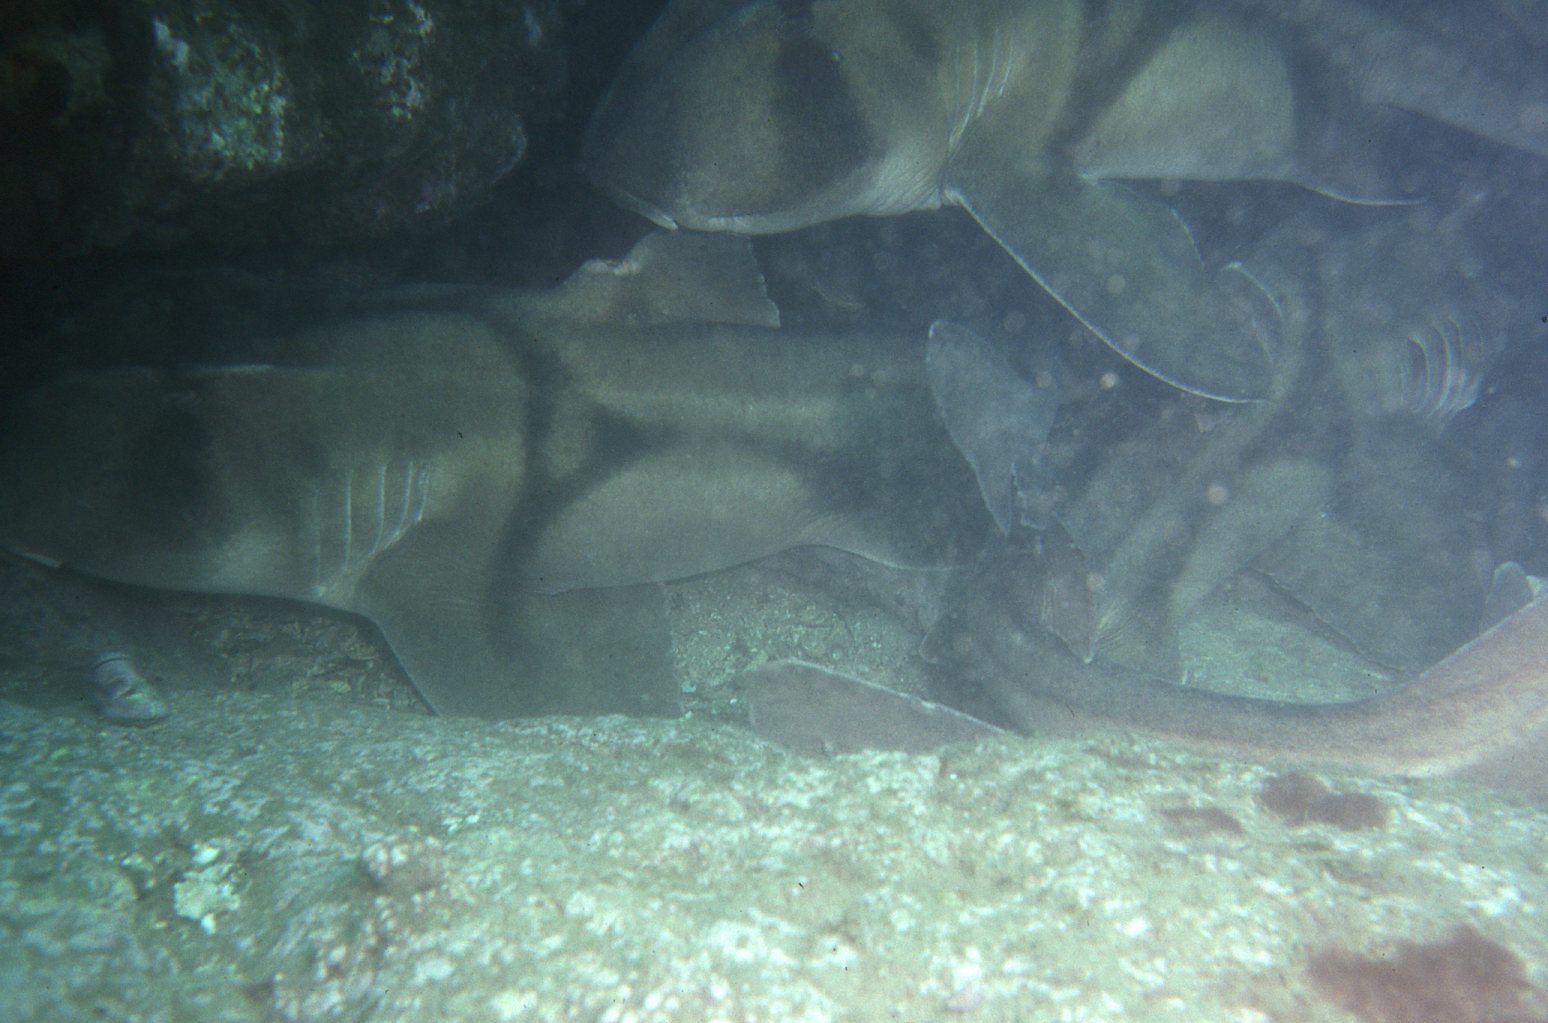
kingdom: Animalia
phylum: Chordata
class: Elasmobranchii
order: Heterodontiformes
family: Heterodontidae
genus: Heterodontus
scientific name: Heterodontus portusjacksoni
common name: Port jackson shark
